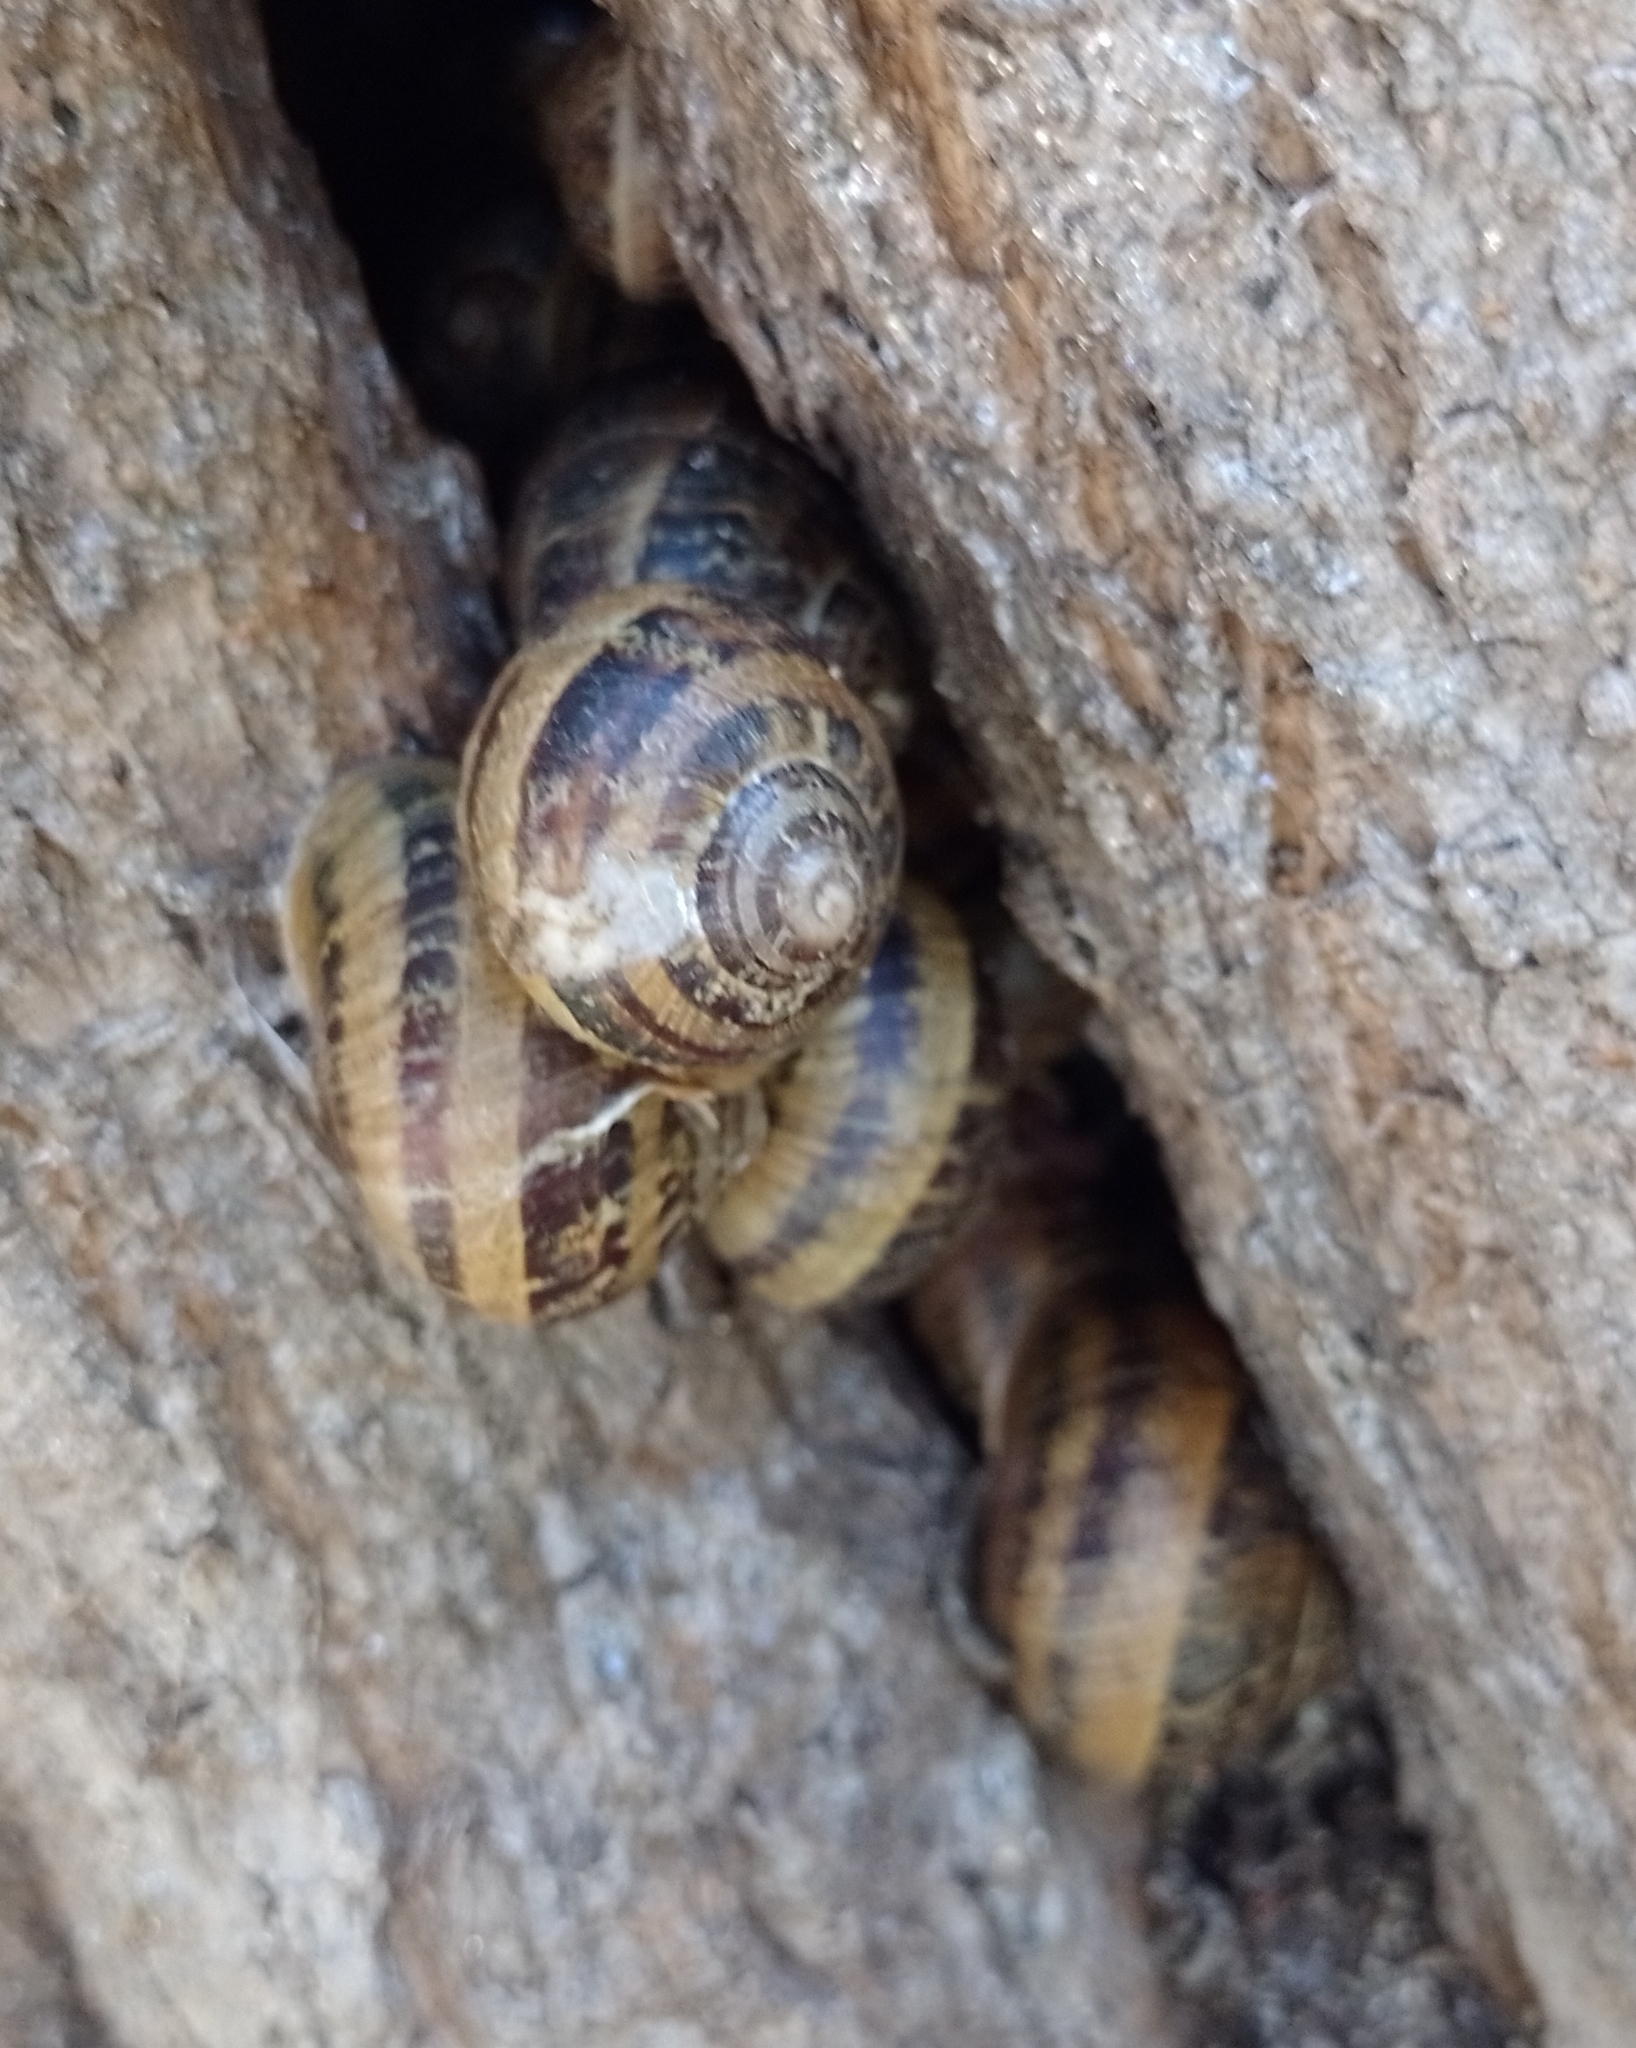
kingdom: Animalia
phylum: Mollusca
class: Gastropoda
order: Stylommatophora
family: Helicidae
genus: Cornu
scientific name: Cornu aspersum
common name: Brown garden snail
